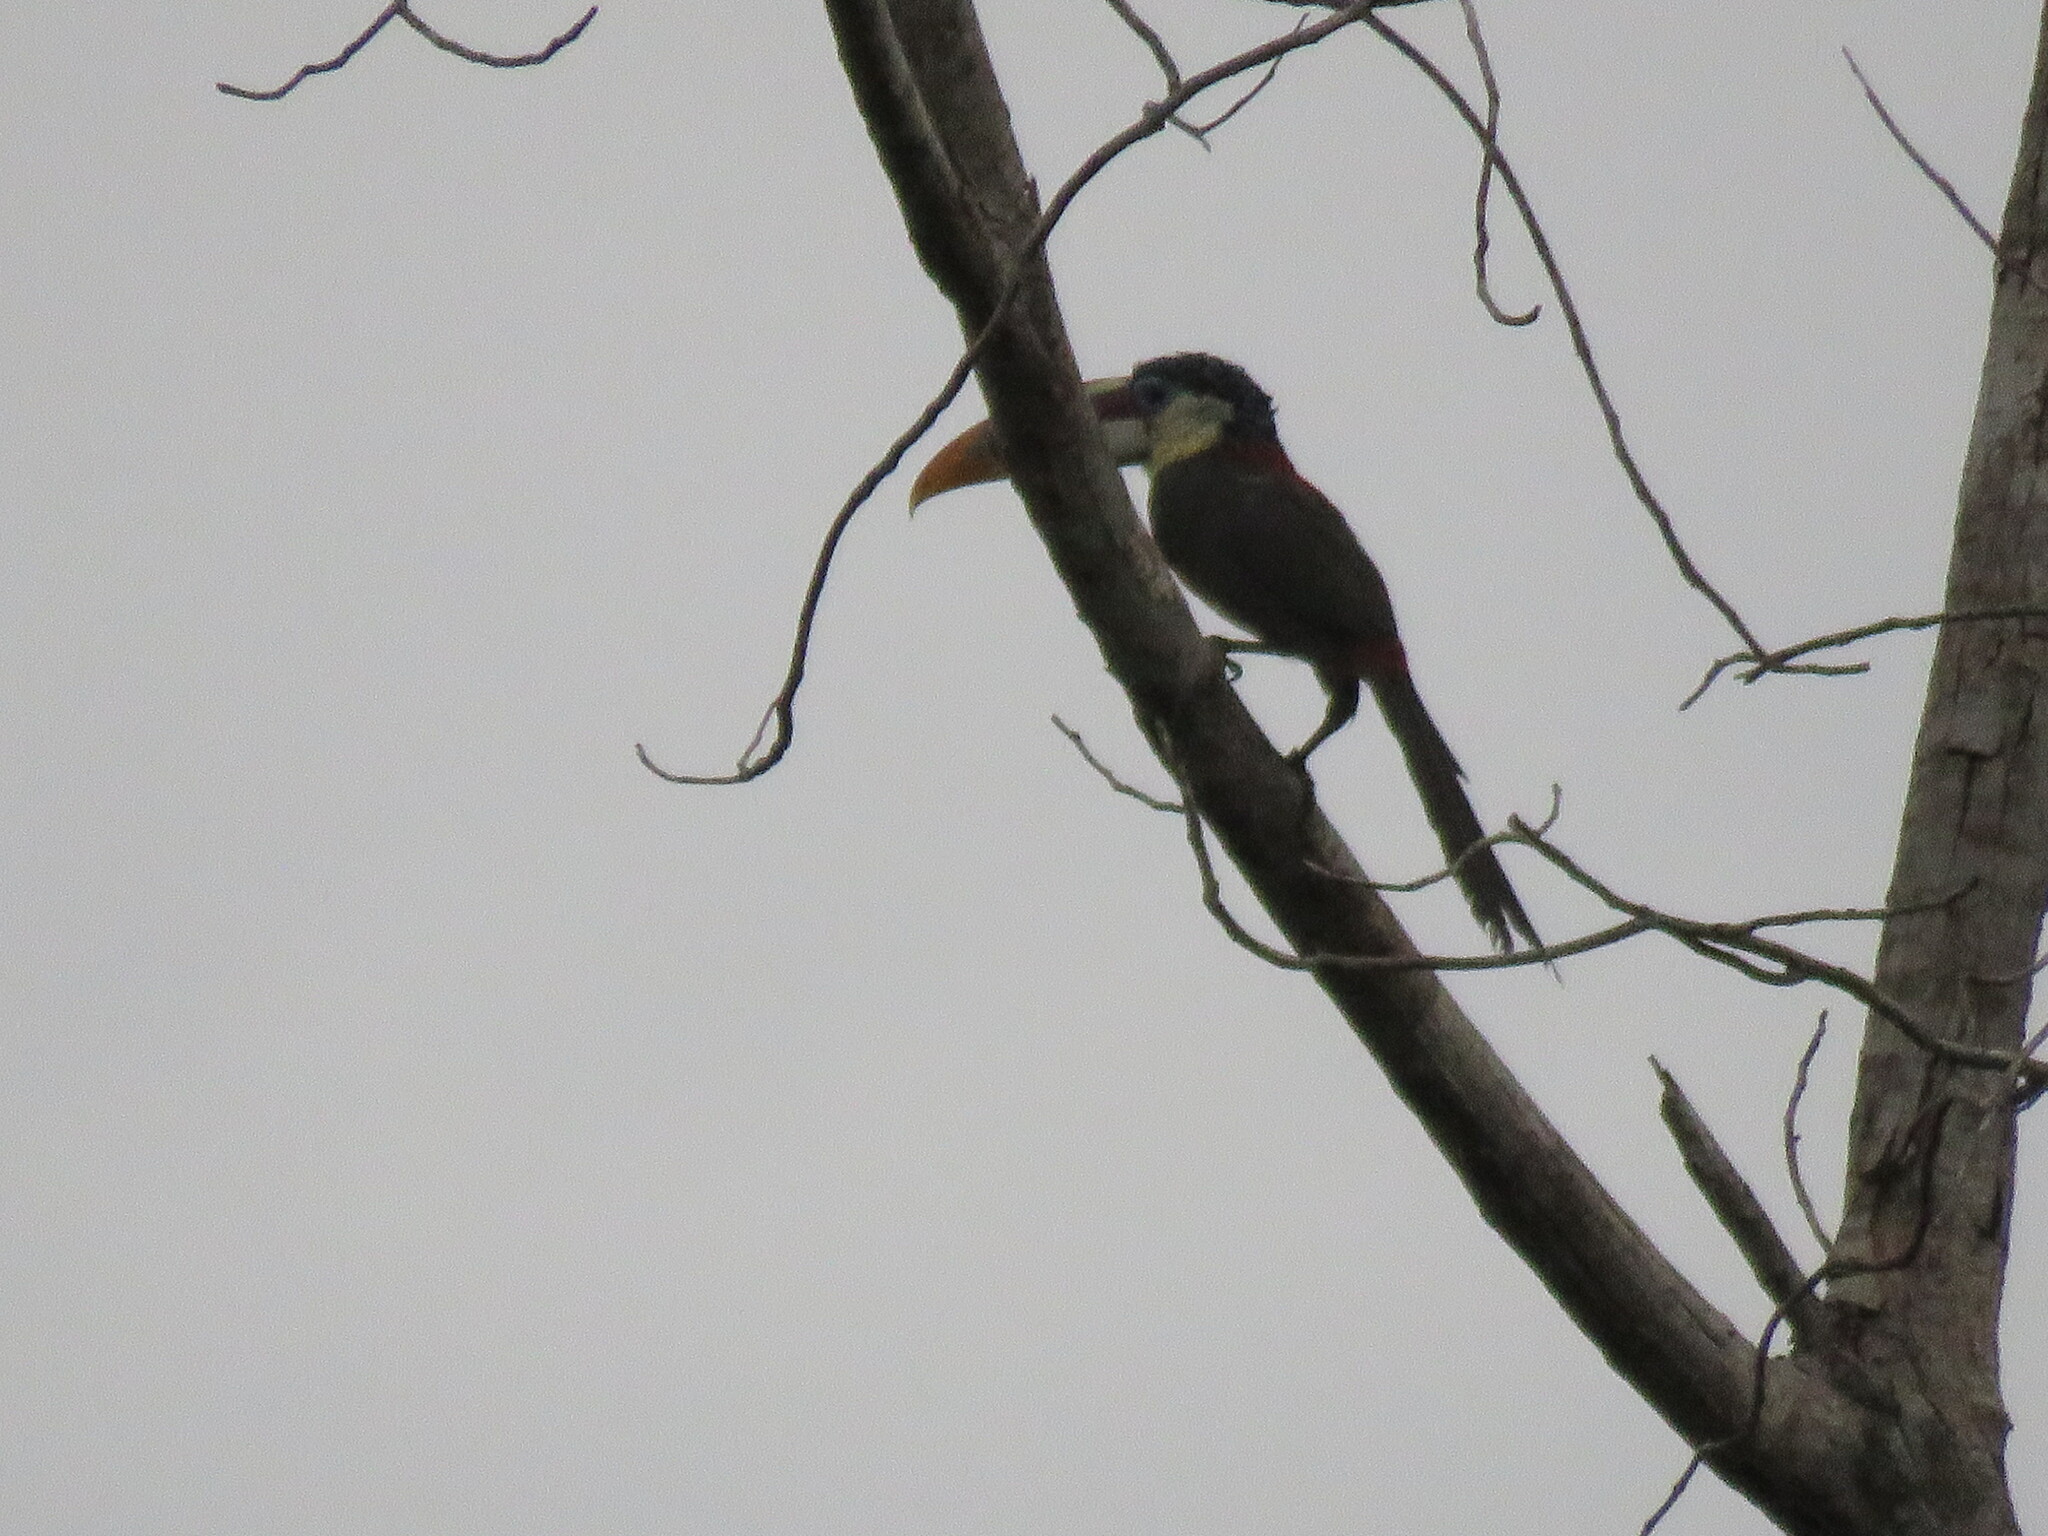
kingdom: Animalia
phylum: Chordata
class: Aves
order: Piciformes
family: Ramphastidae
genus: Pteroglossus
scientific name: Pteroglossus beauharnaisii
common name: Curl-crested aracari
